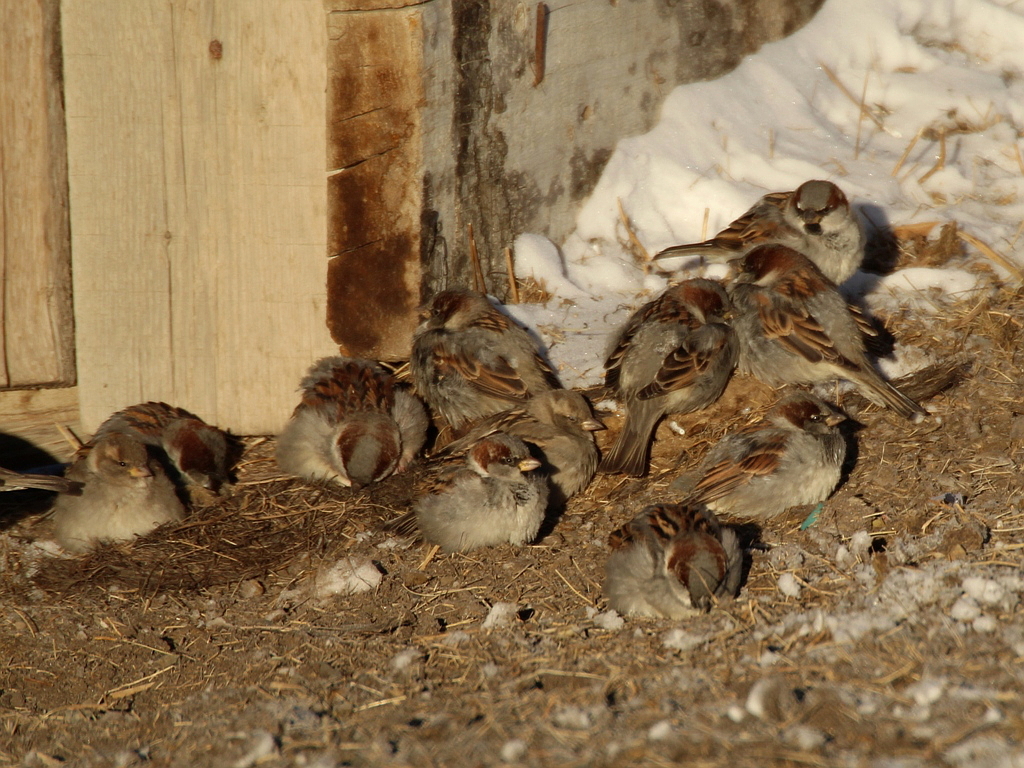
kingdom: Animalia
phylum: Chordata
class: Aves
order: Passeriformes
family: Passeridae
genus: Passer
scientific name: Passer domesticus
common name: House sparrow
